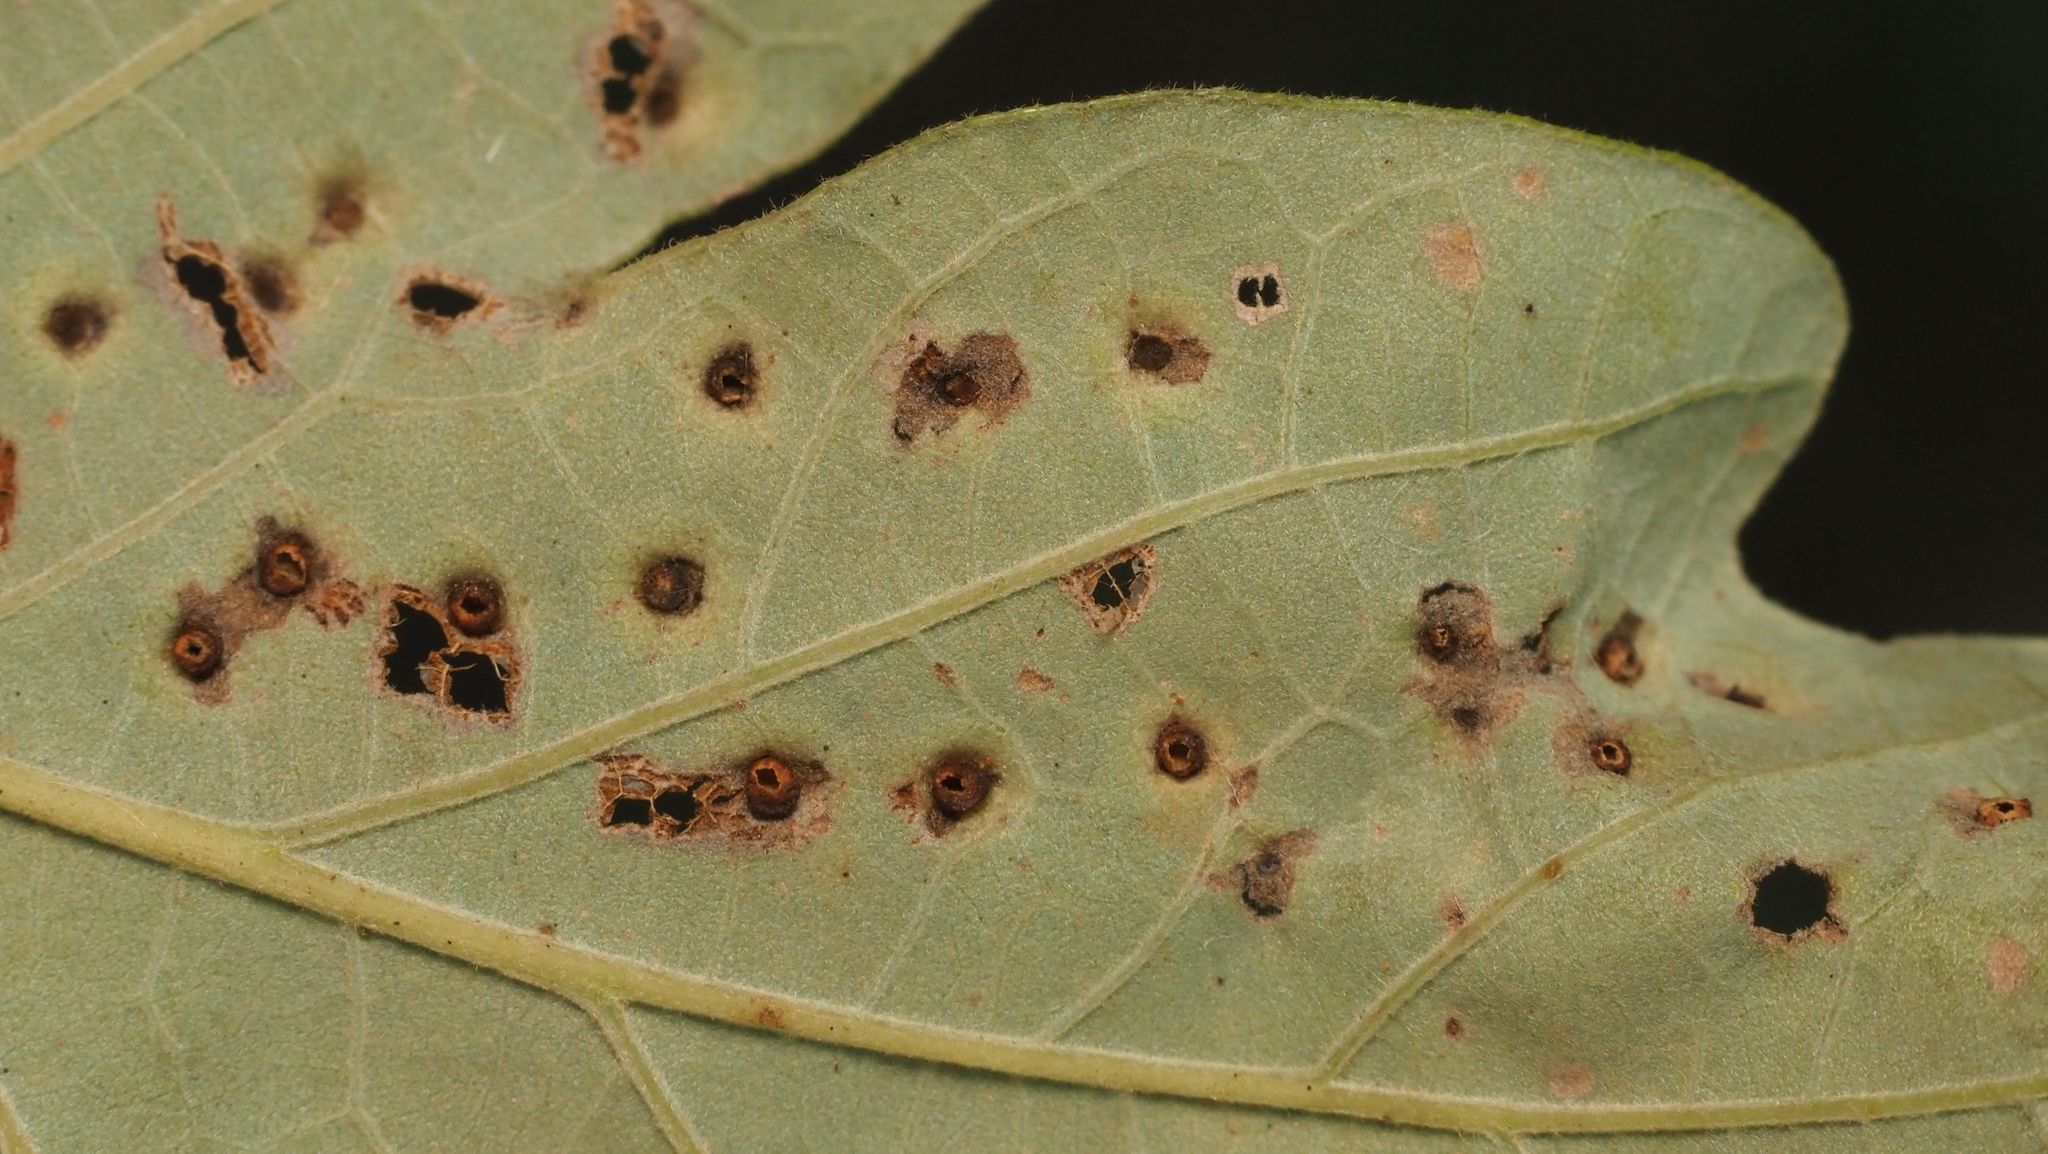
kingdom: Animalia
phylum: Arthropoda
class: Insecta
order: Hymenoptera
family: Cynipidae
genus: Neuroterus
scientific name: Neuroterus saltarius
